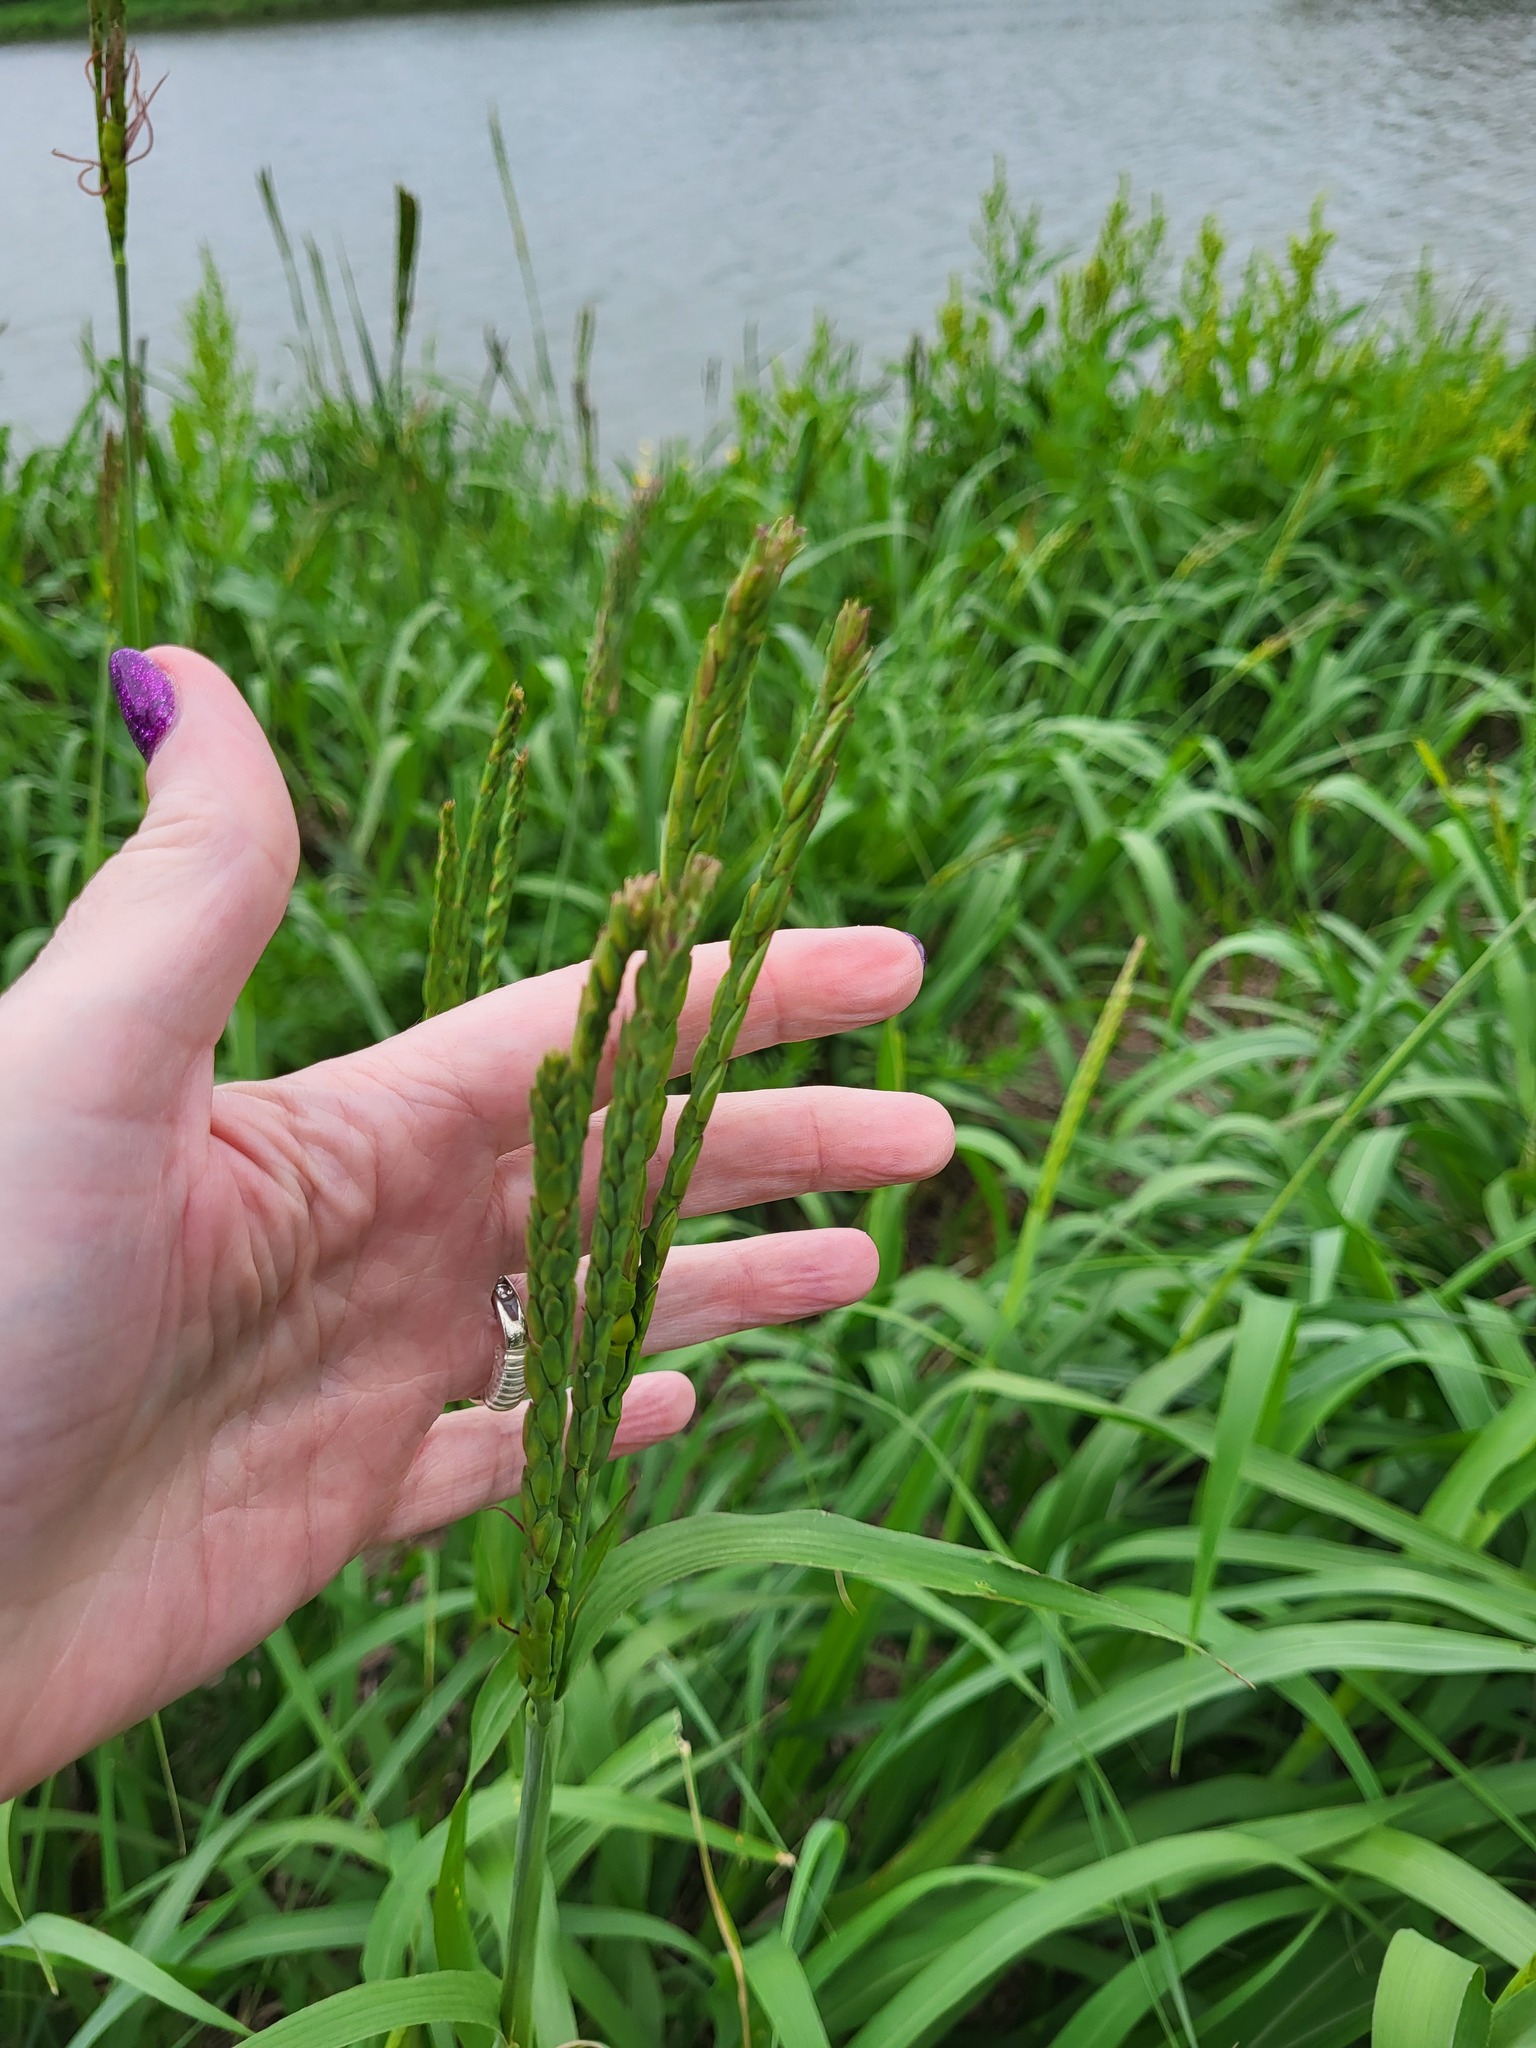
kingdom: Plantae
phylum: Tracheophyta
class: Liliopsida
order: Poales
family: Poaceae
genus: Tripsacum
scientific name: Tripsacum dactyloides
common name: Buffalo-grass
